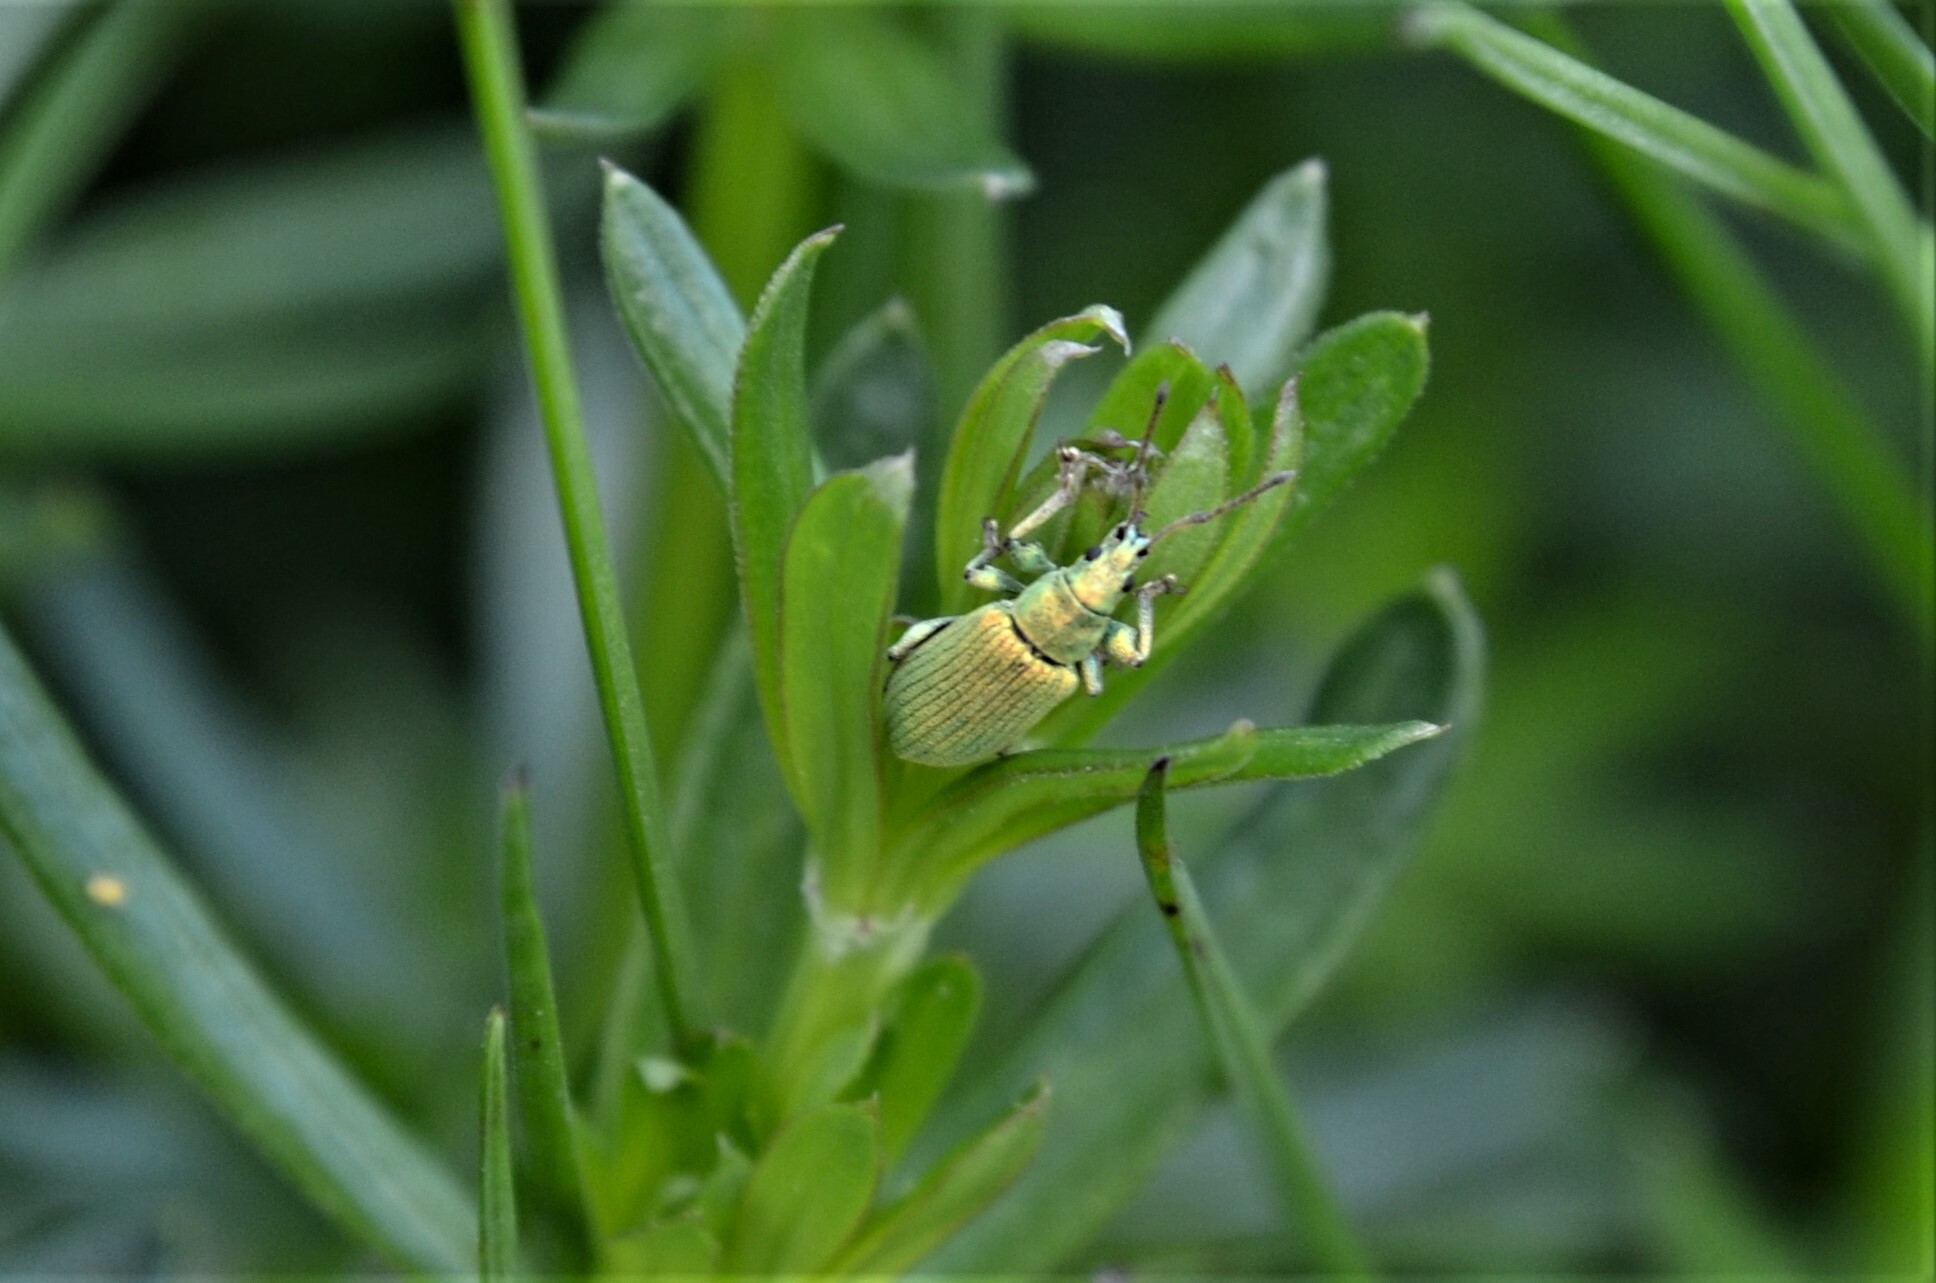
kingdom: Animalia
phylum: Arthropoda
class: Insecta
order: Coleoptera
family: Curculionidae
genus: Phyllobius
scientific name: Phyllobius maculicornis
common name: Green leaf weevil
